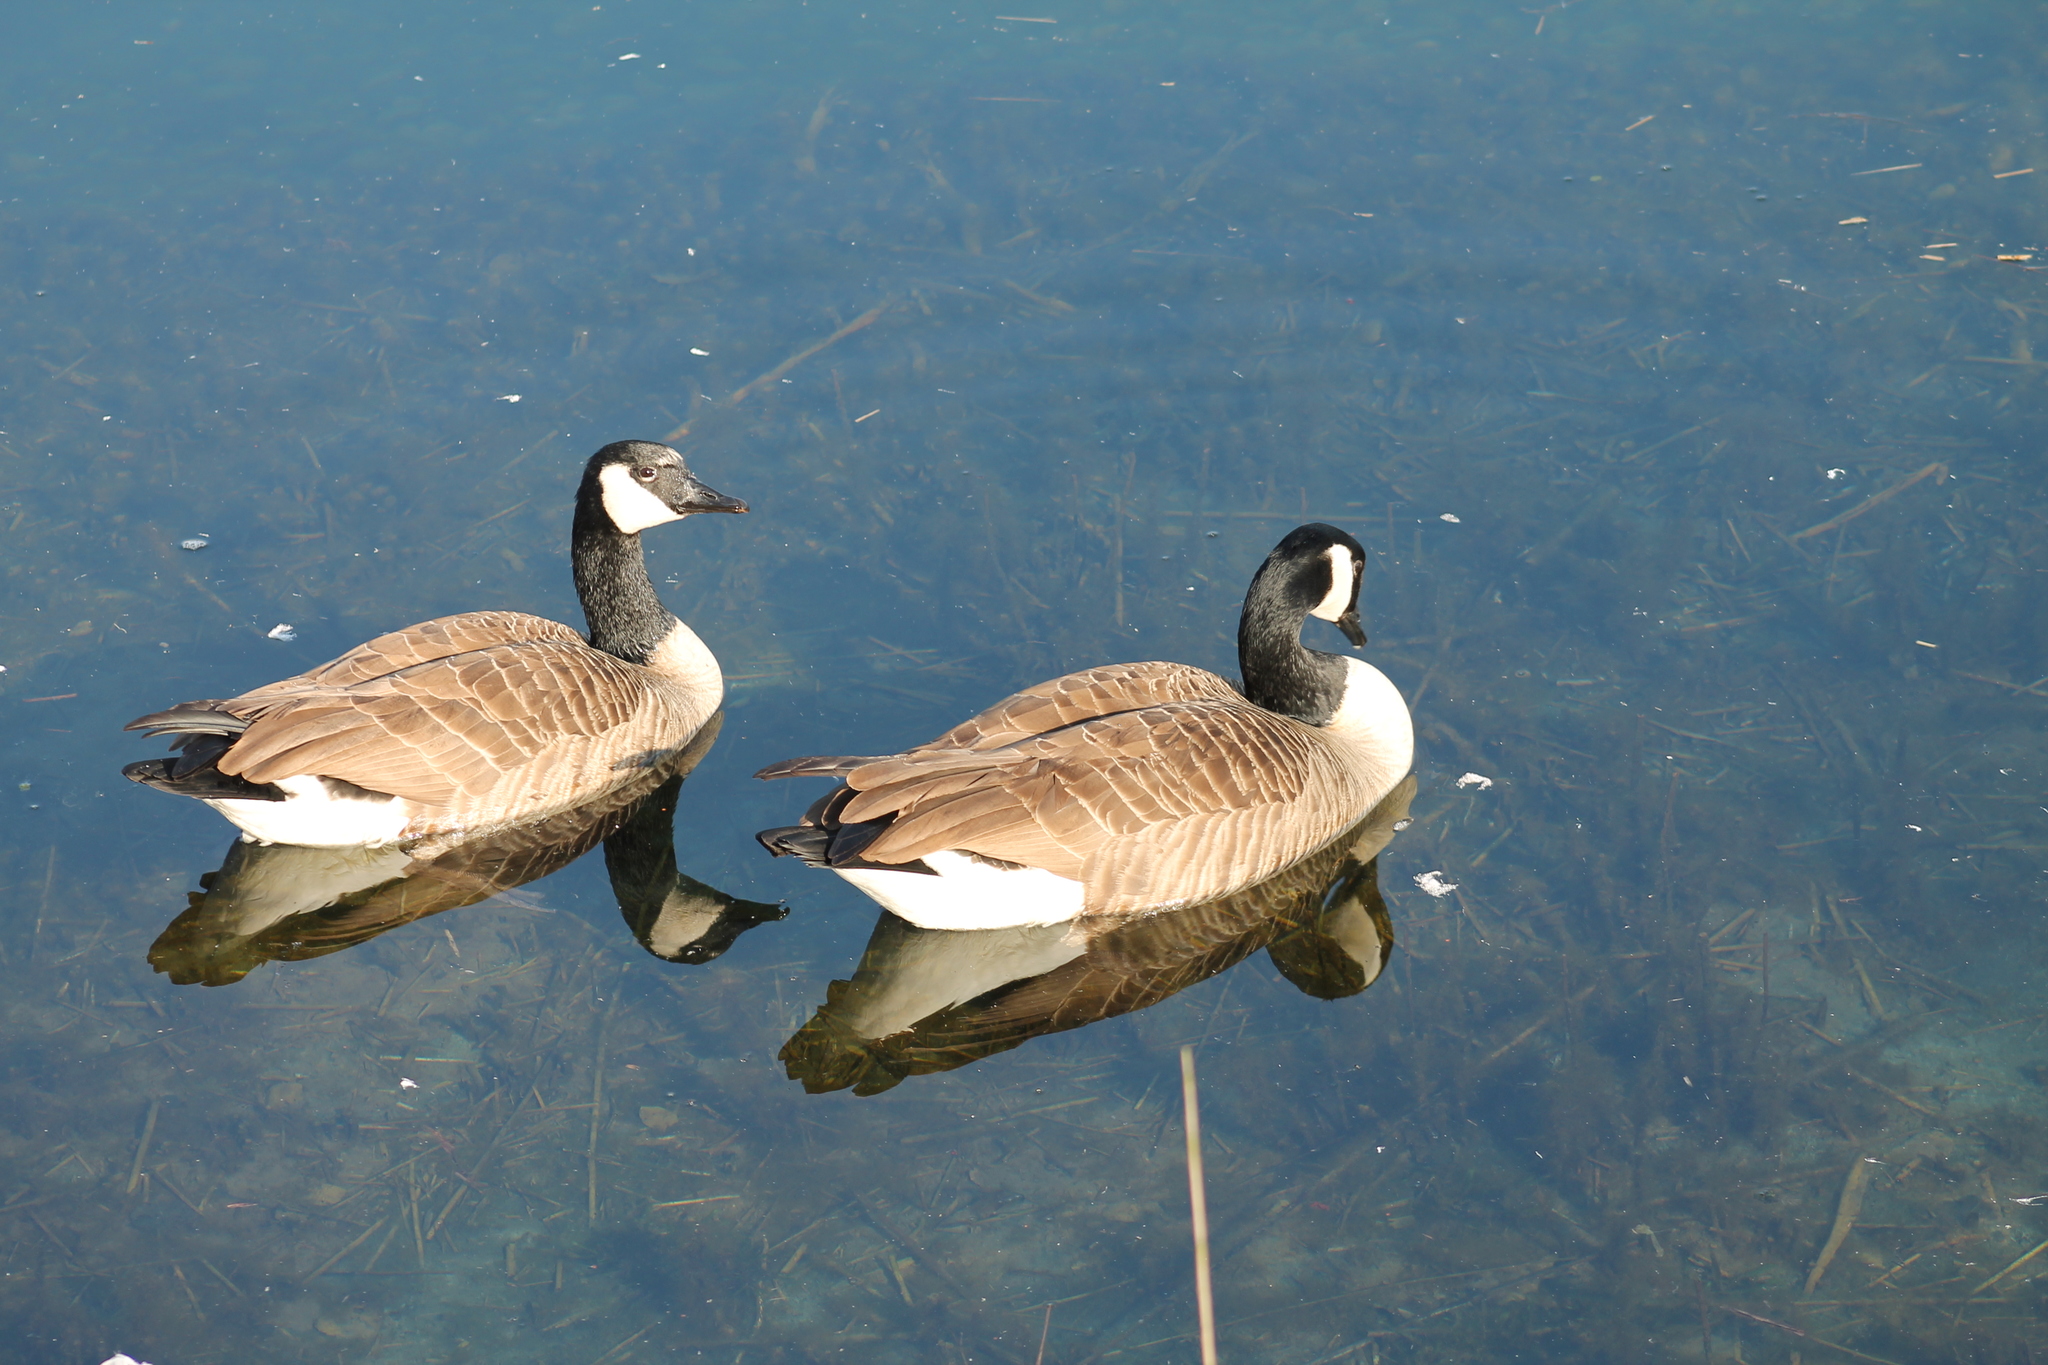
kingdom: Animalia
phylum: Chordata
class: Aves
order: Anseriformes
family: Anatidae
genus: Branta
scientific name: Branta canadensis
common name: Canada goose
